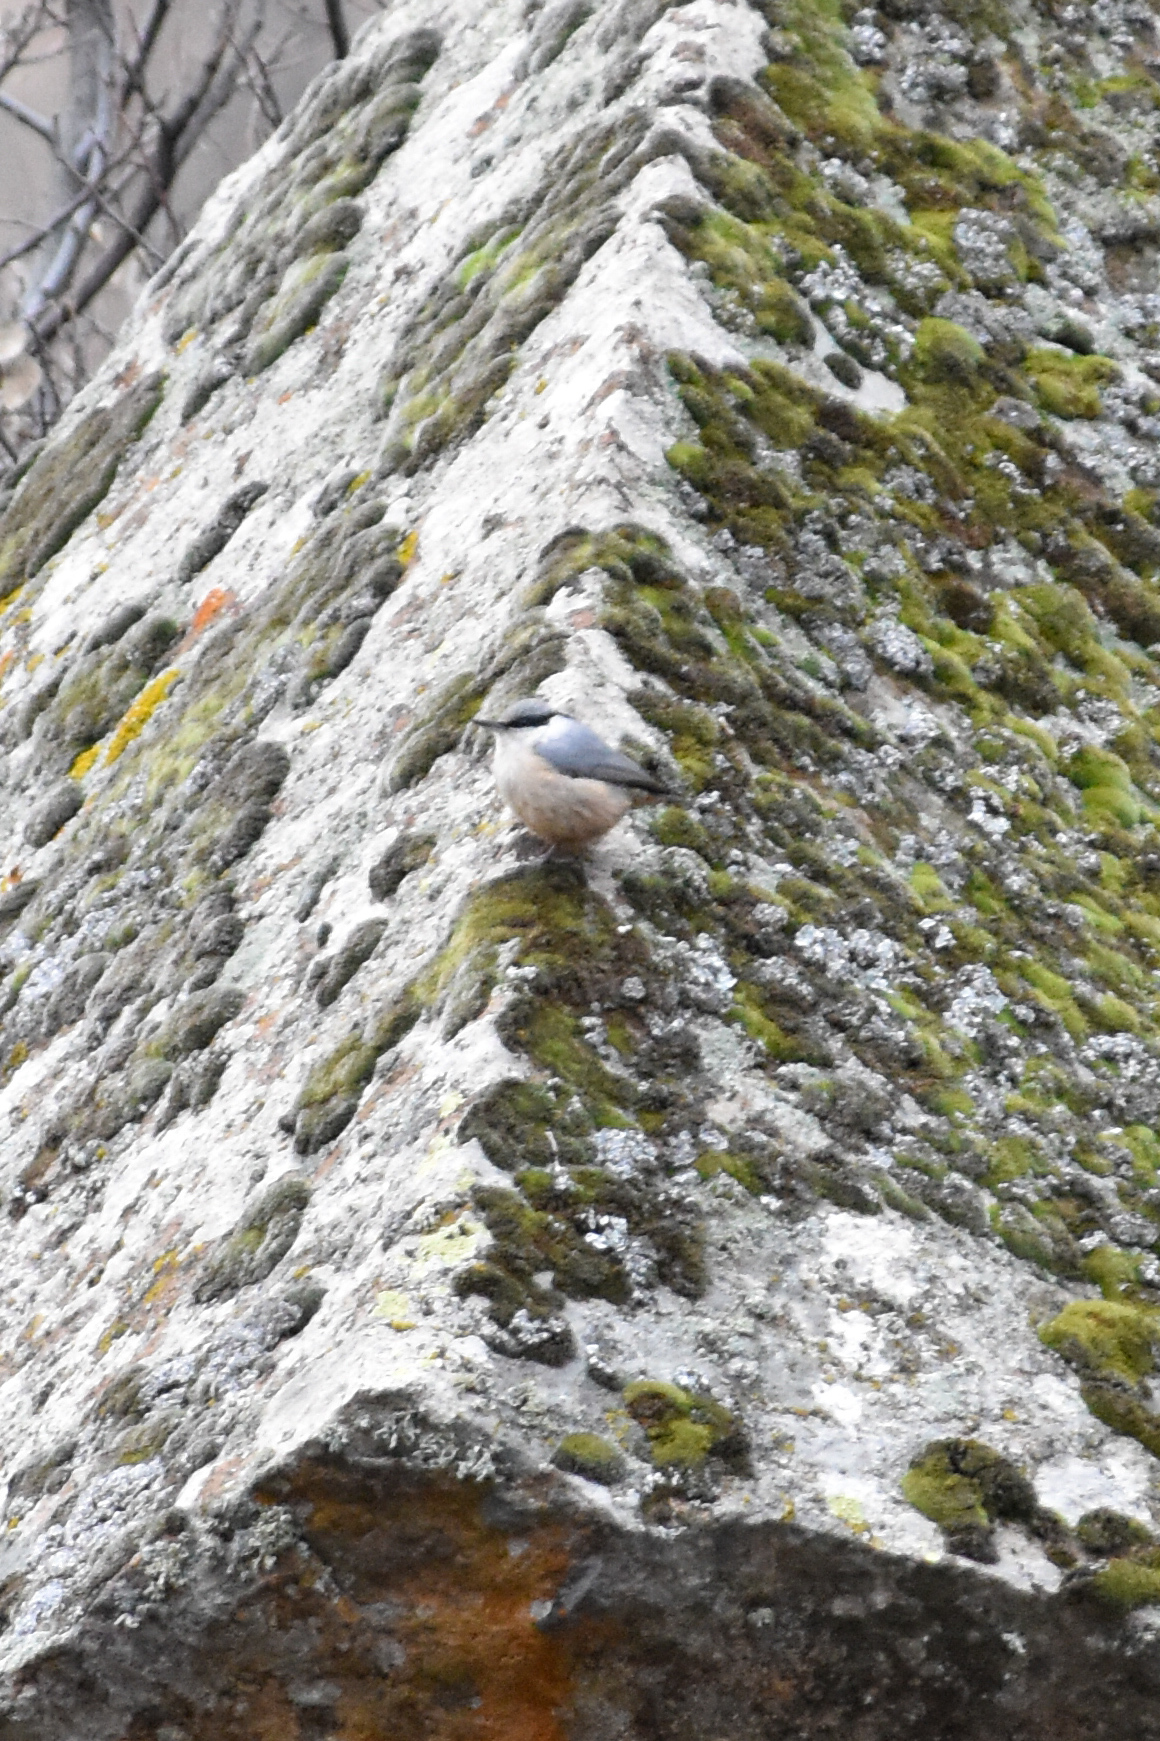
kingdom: Animalia
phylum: Chordata
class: Aves
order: Passeriformes
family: Sittidae
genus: Sitta
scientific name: Sitta neumayer
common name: Western rock nuthatch
